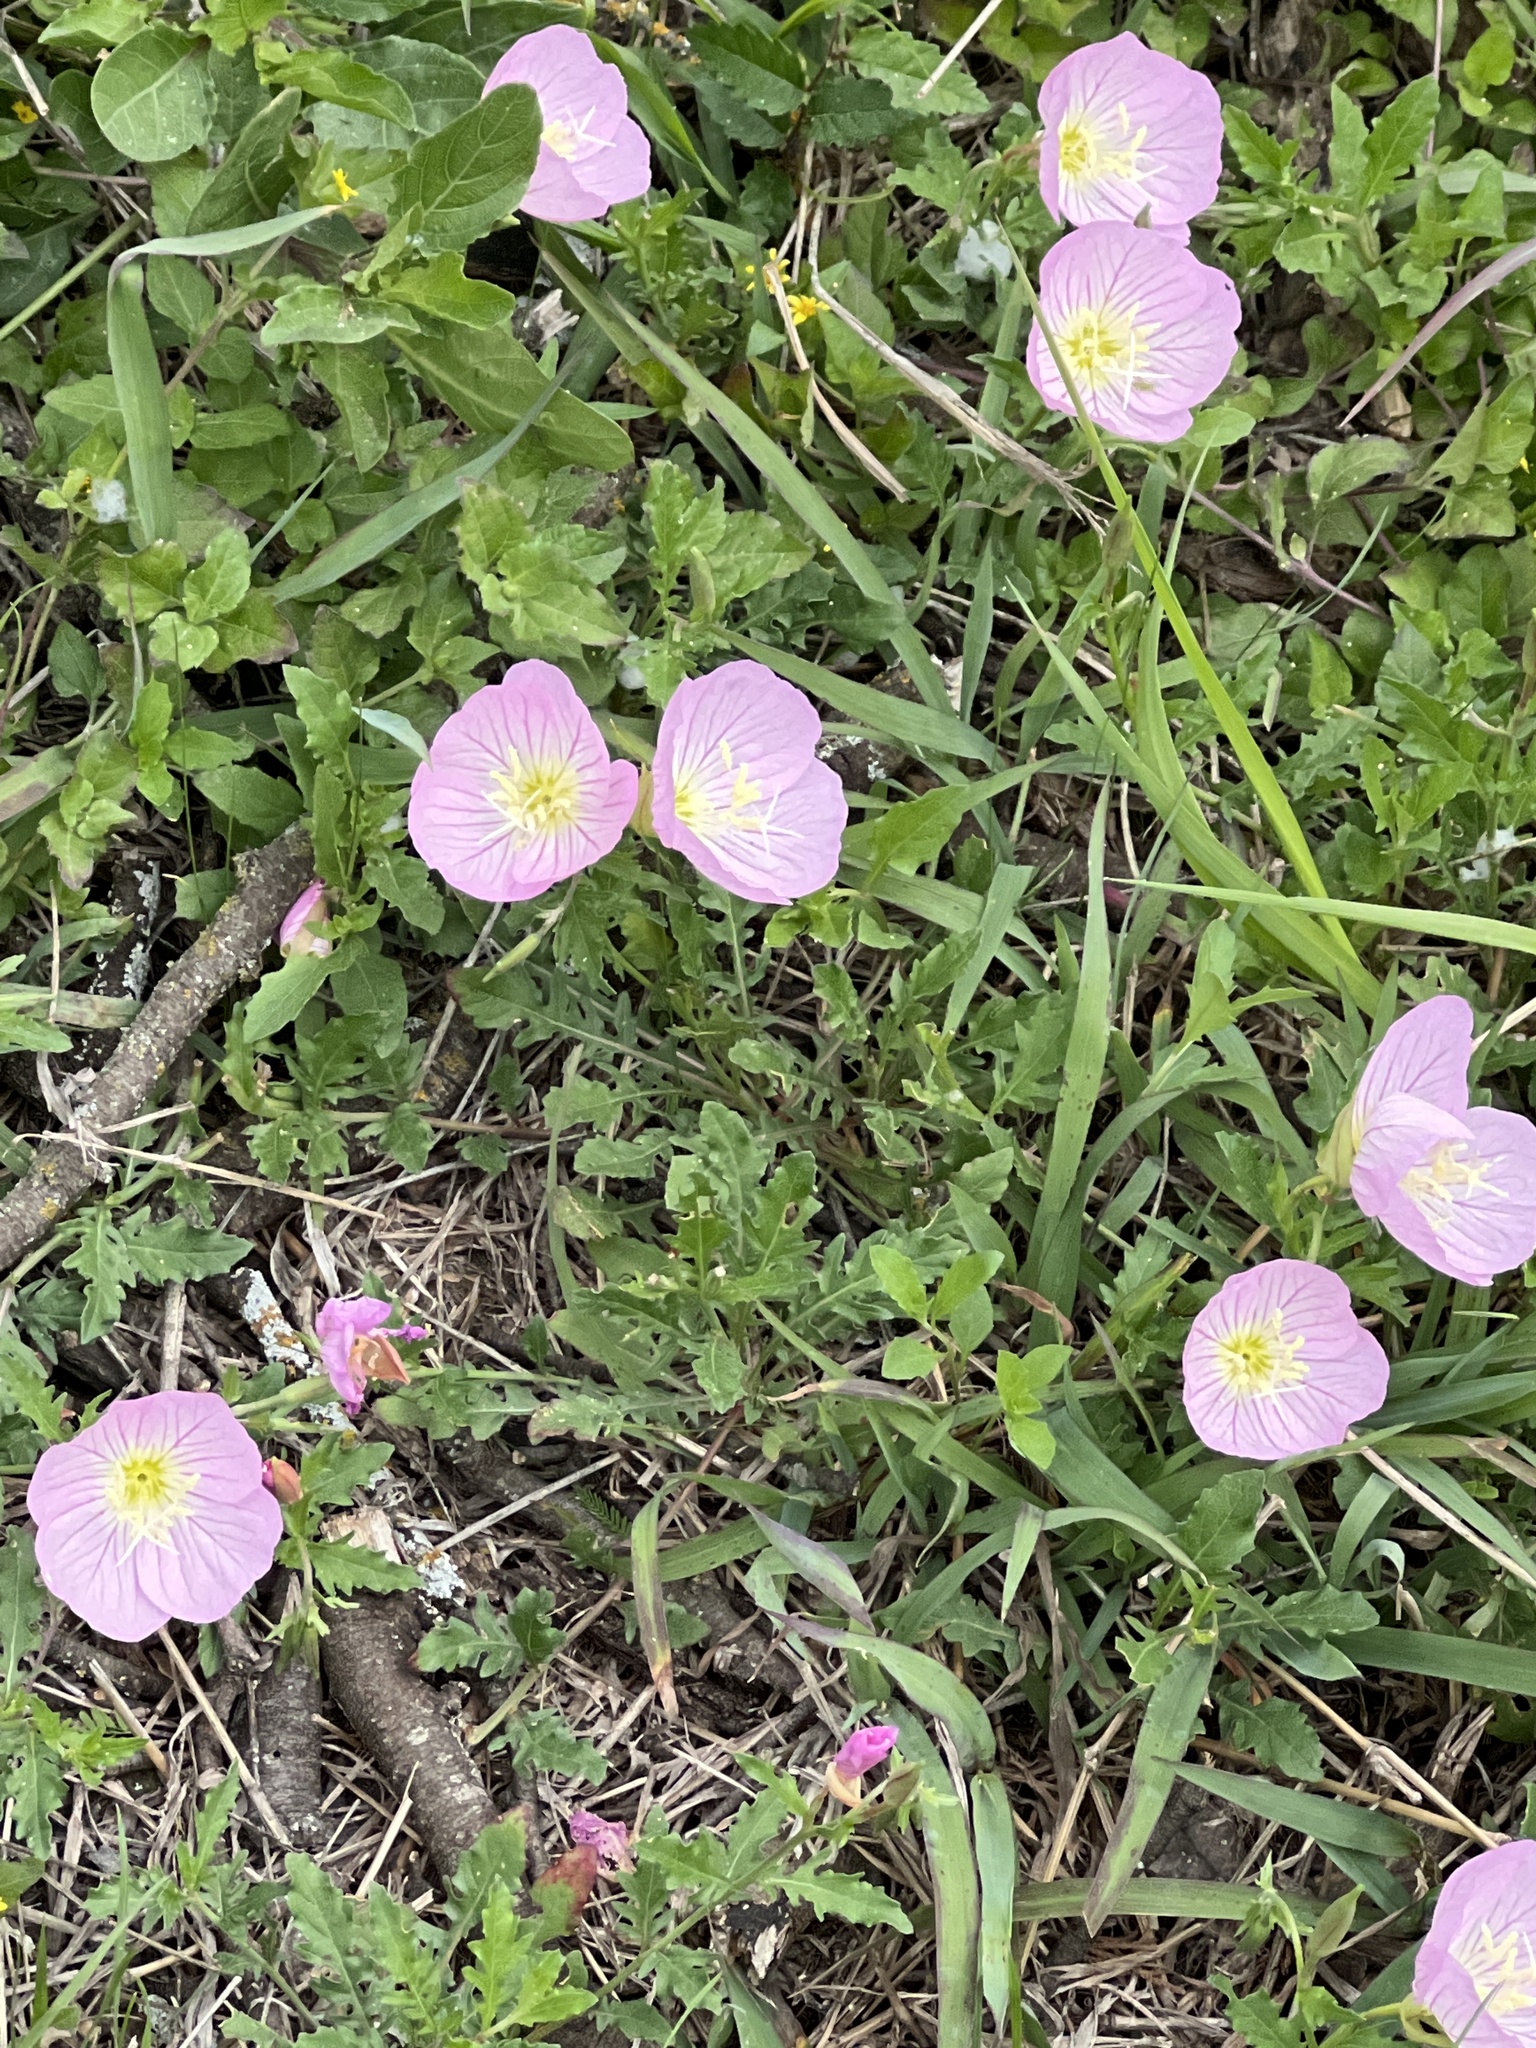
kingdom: Plantae
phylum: Tracheophyta
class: Magnoliopsida
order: Myrtales
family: Onagraceae
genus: Oenothera
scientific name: Oenothera speciosa
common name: White evening-primrose
